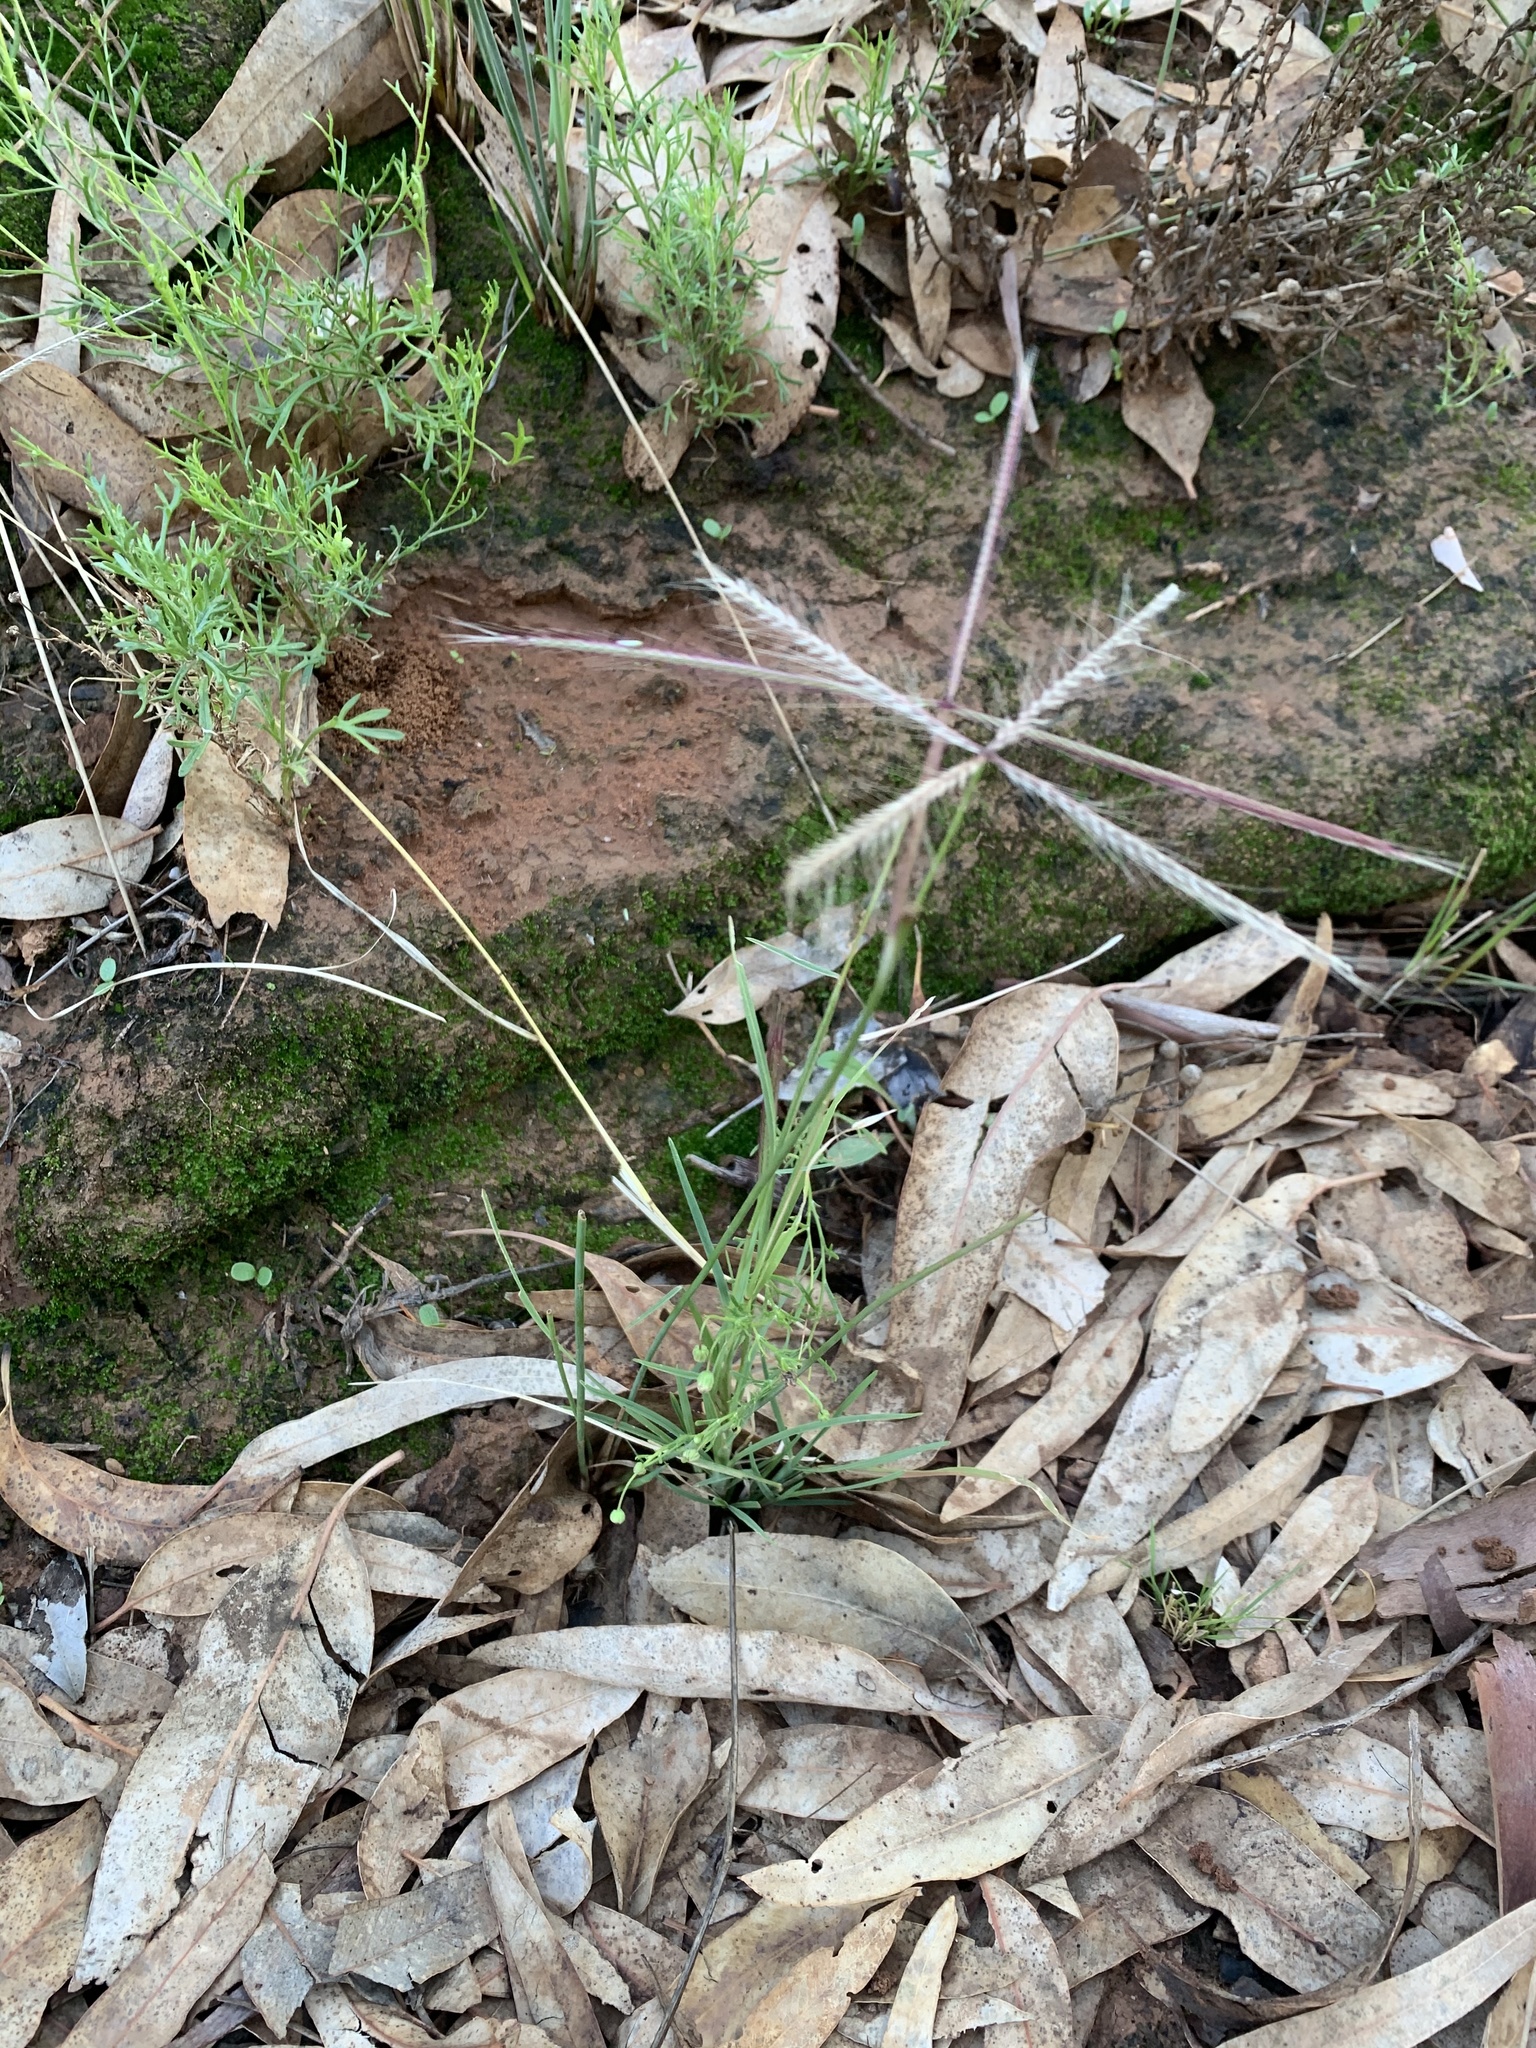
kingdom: Plantae
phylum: Tracheophyta
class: Liliopsida
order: Poales
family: Poaceae
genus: Chloris
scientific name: Chloris pectinata
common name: Comb windmill grass
